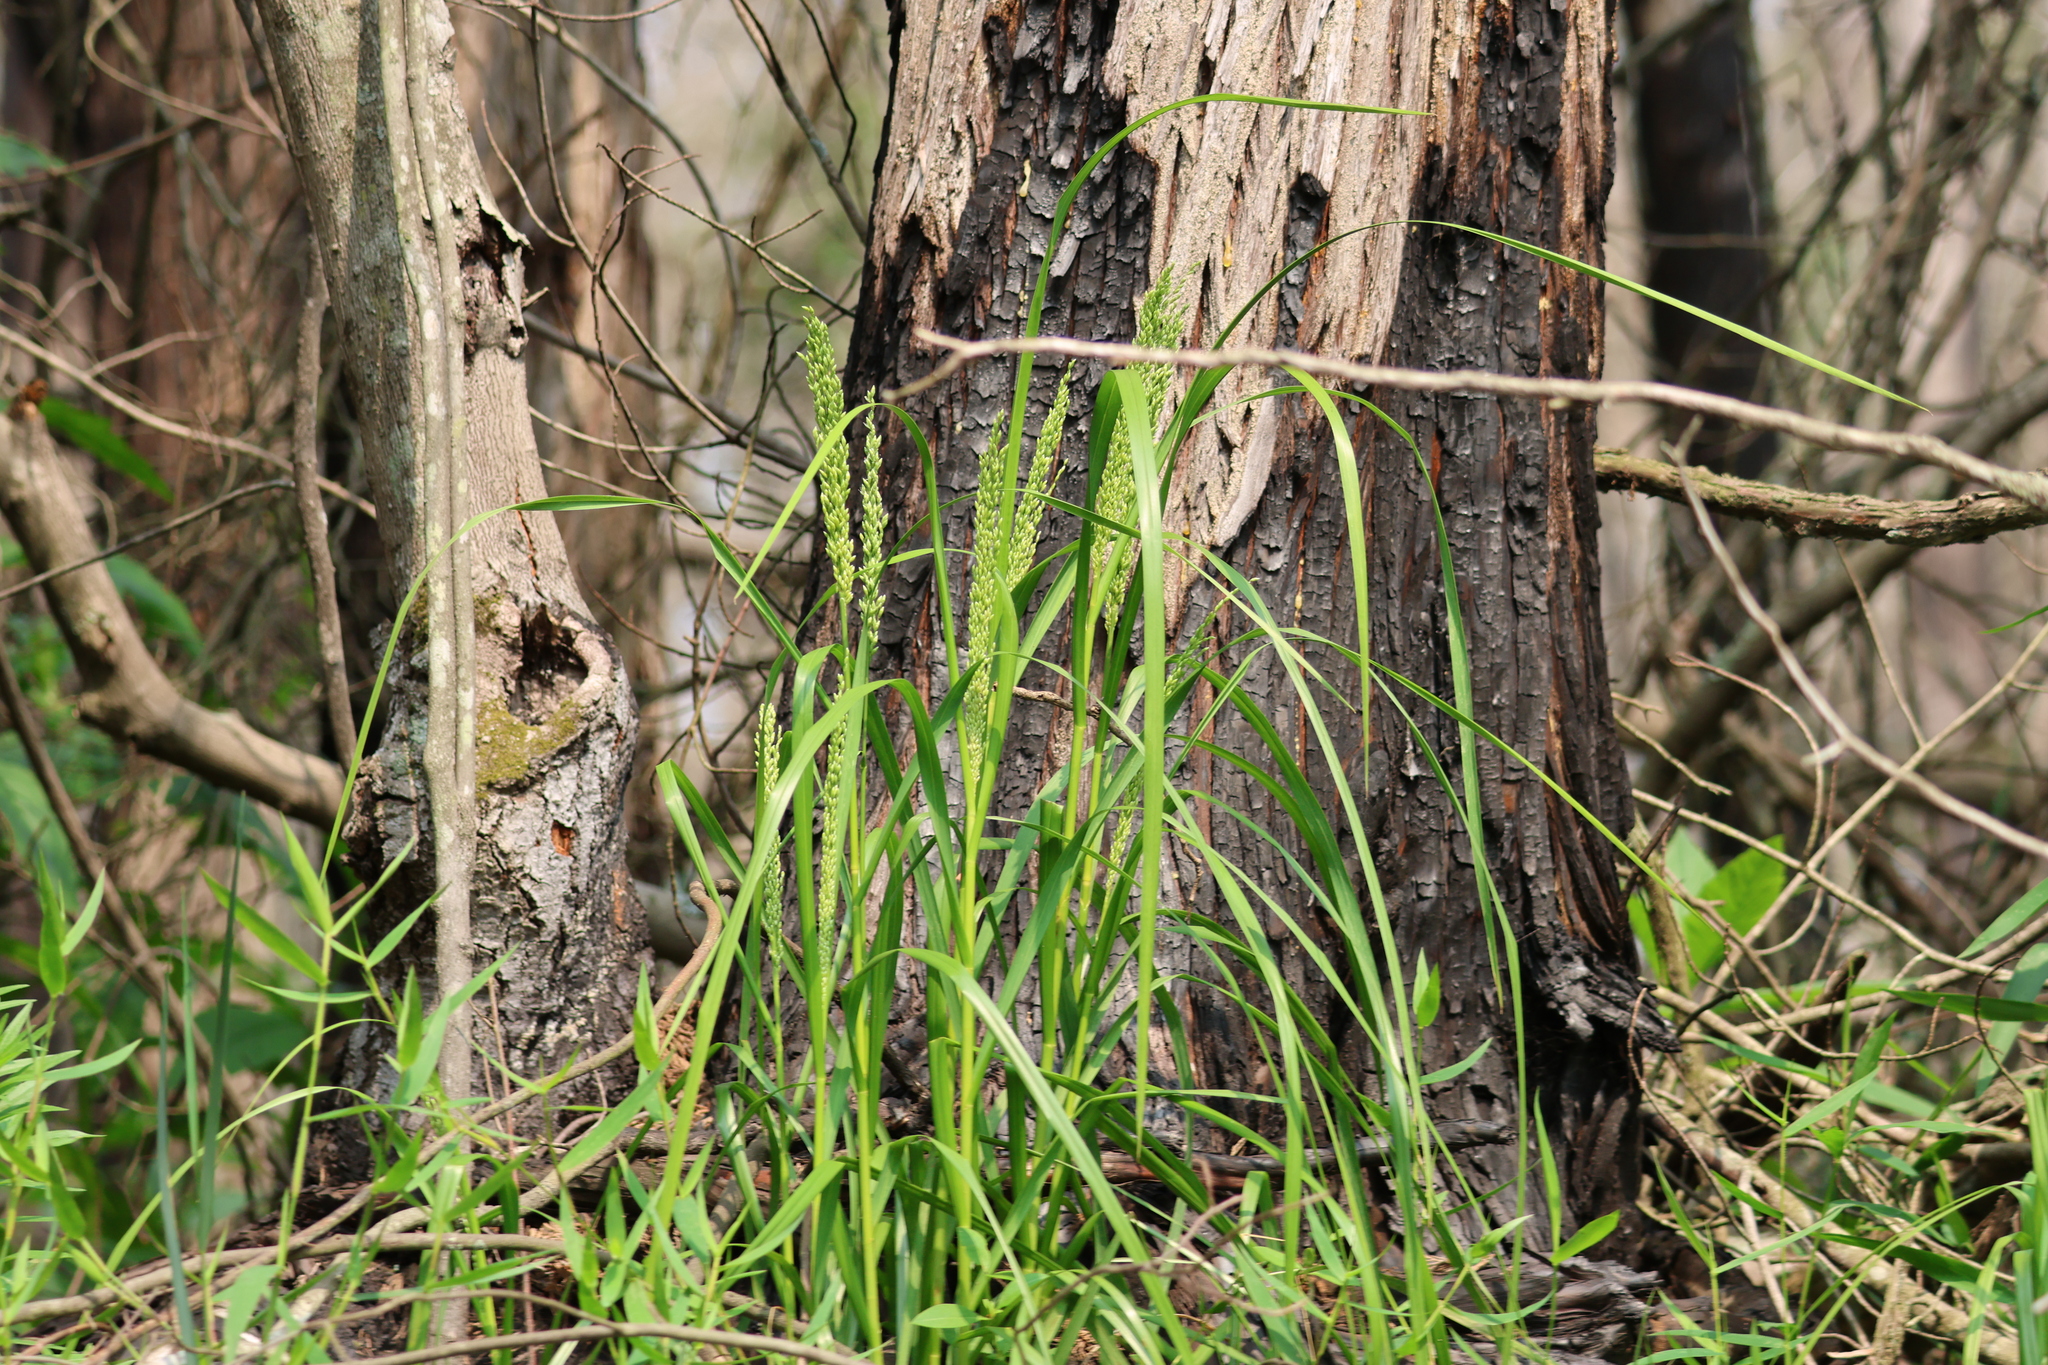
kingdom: Plantae
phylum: Tracheophyta
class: Liliopsida
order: Poales
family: Poaceae
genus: Glyceria
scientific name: Glyceria obtusa
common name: Atlantic mannagrass
